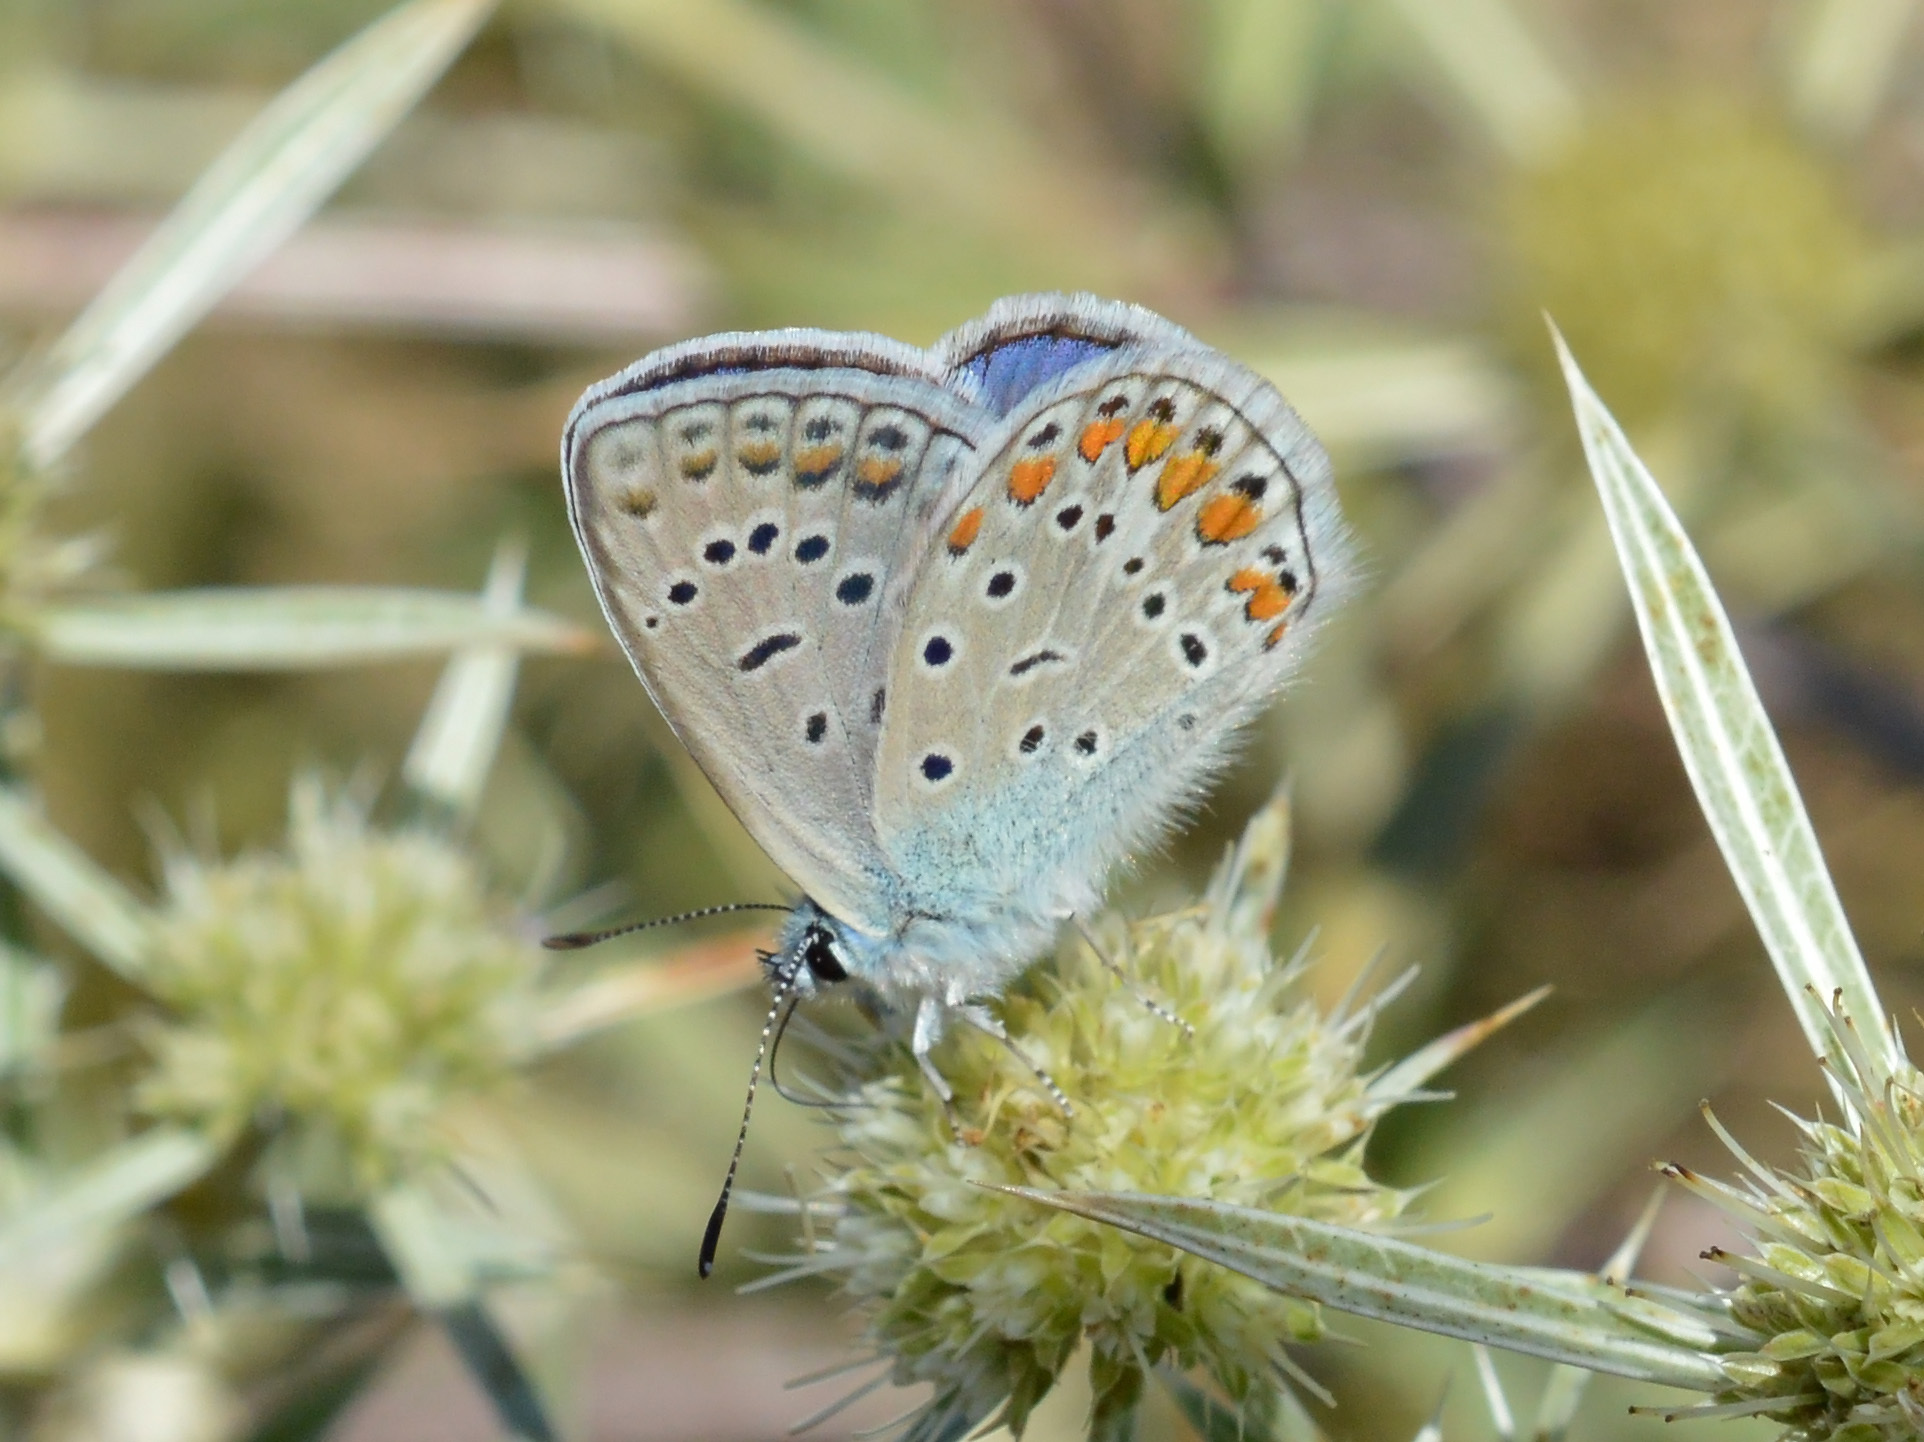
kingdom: Animalia
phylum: Arthropoda
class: Insecta
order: Lepidoptera
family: Lycaenidae
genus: Polyommatus
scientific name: Polyommatus icarus
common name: Common blue
